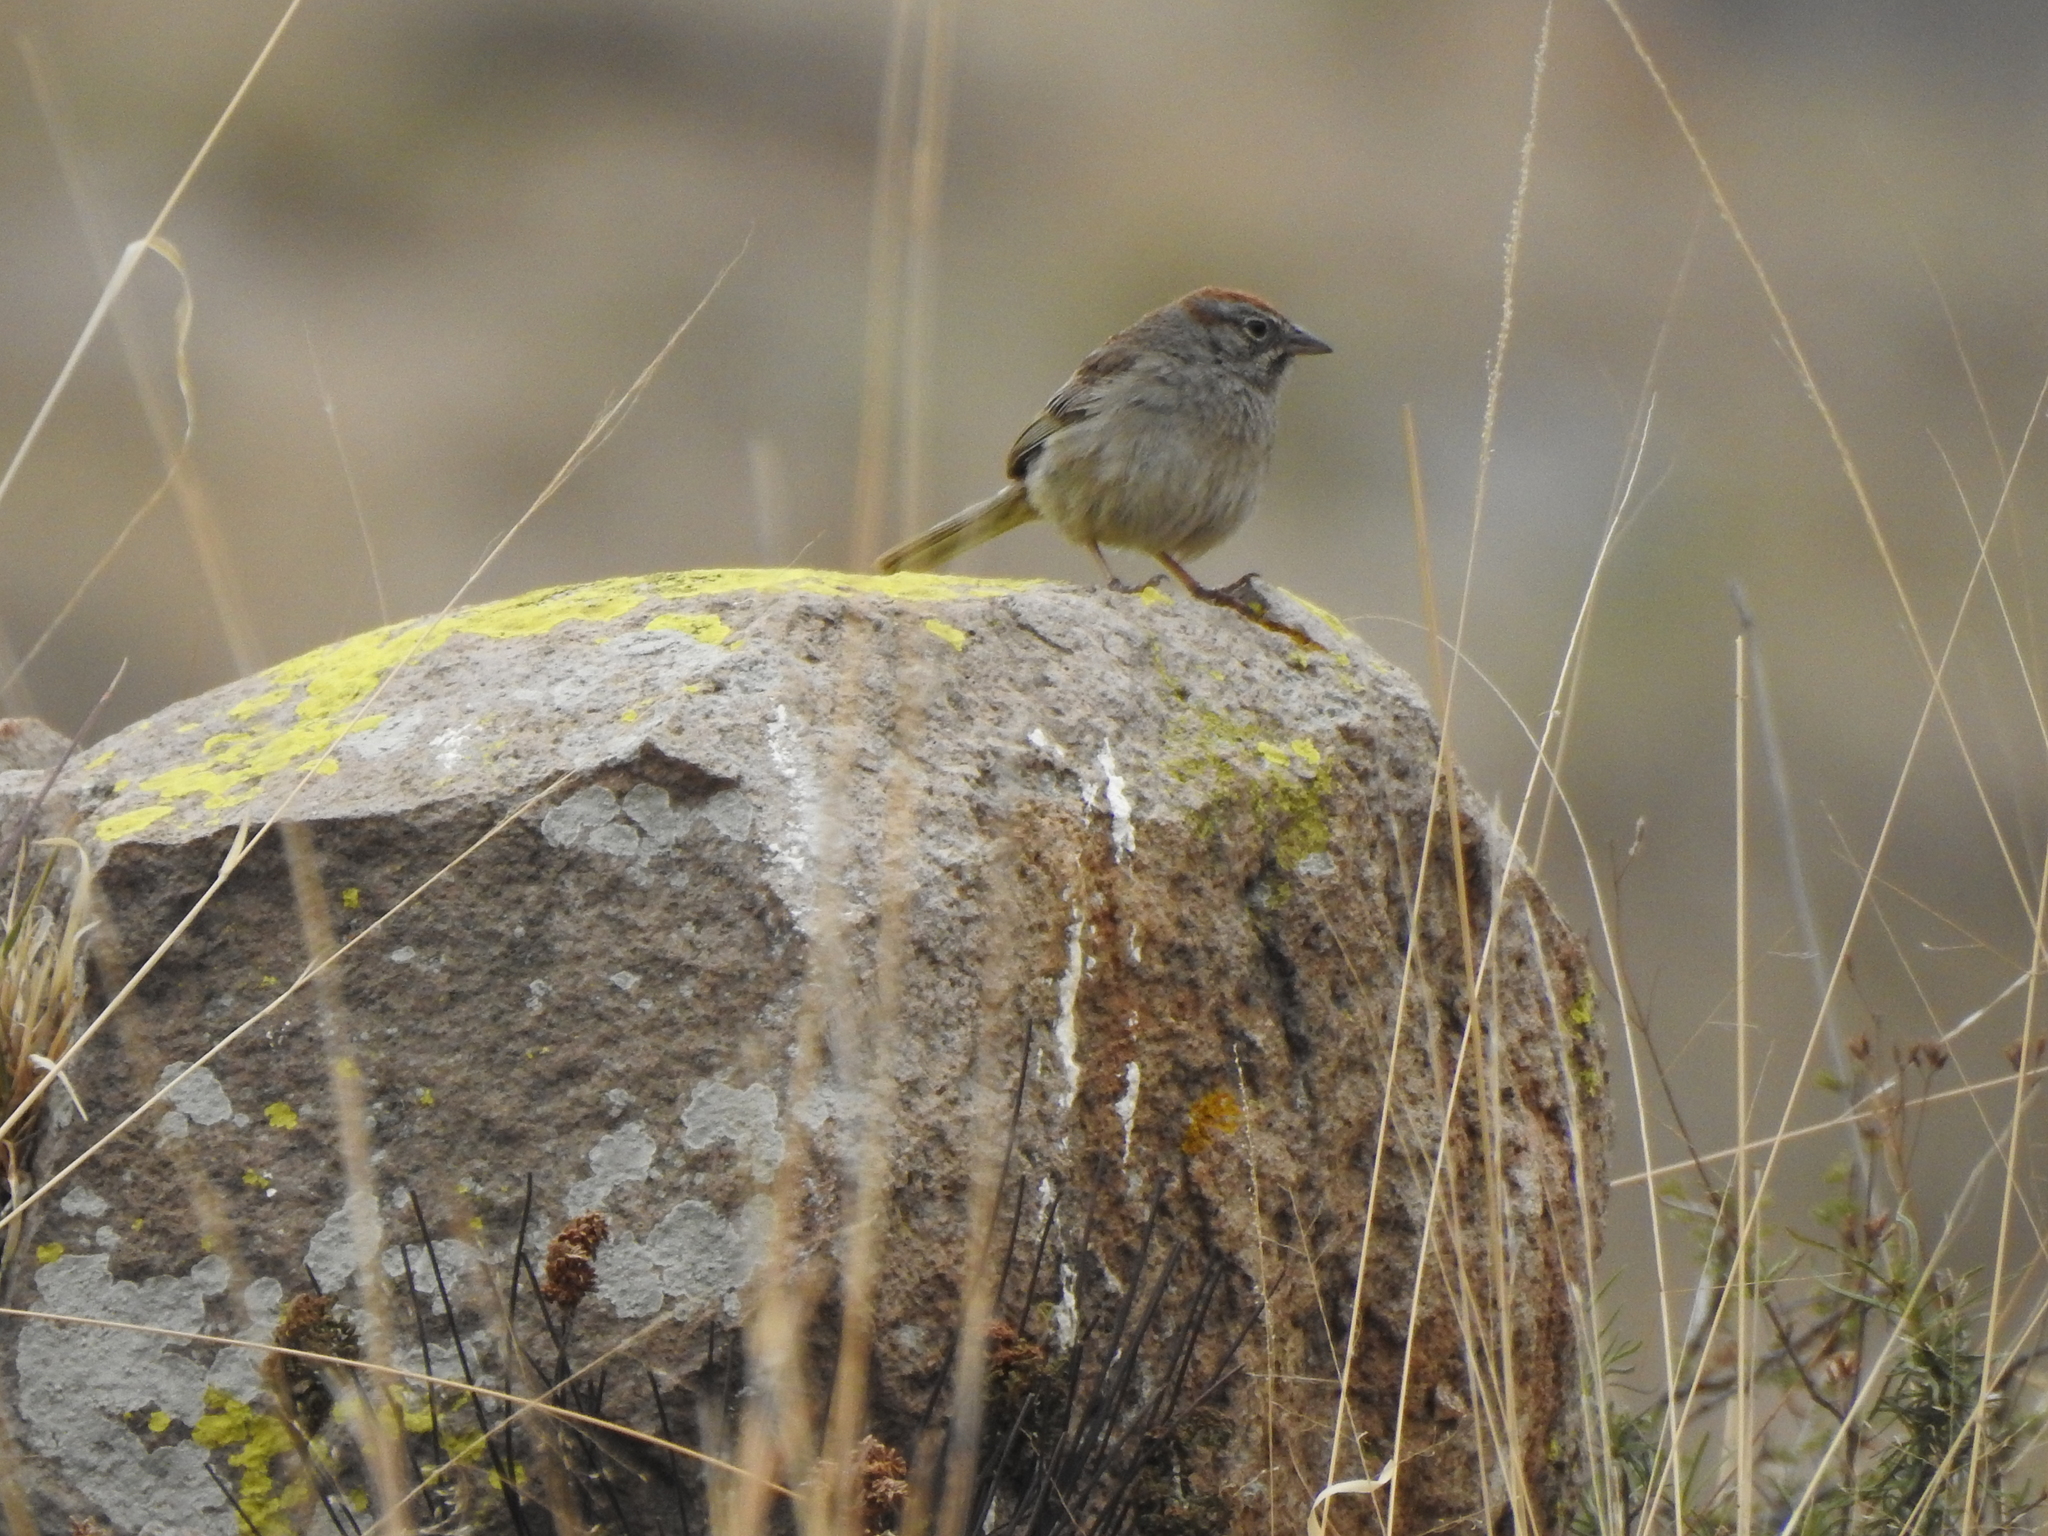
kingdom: Animalia
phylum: Chordata
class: Aves
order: Passeriformes
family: Passerellidae
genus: Aimophila
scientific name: Aimophila ruficeps
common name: Rufous-crowned sparrow
